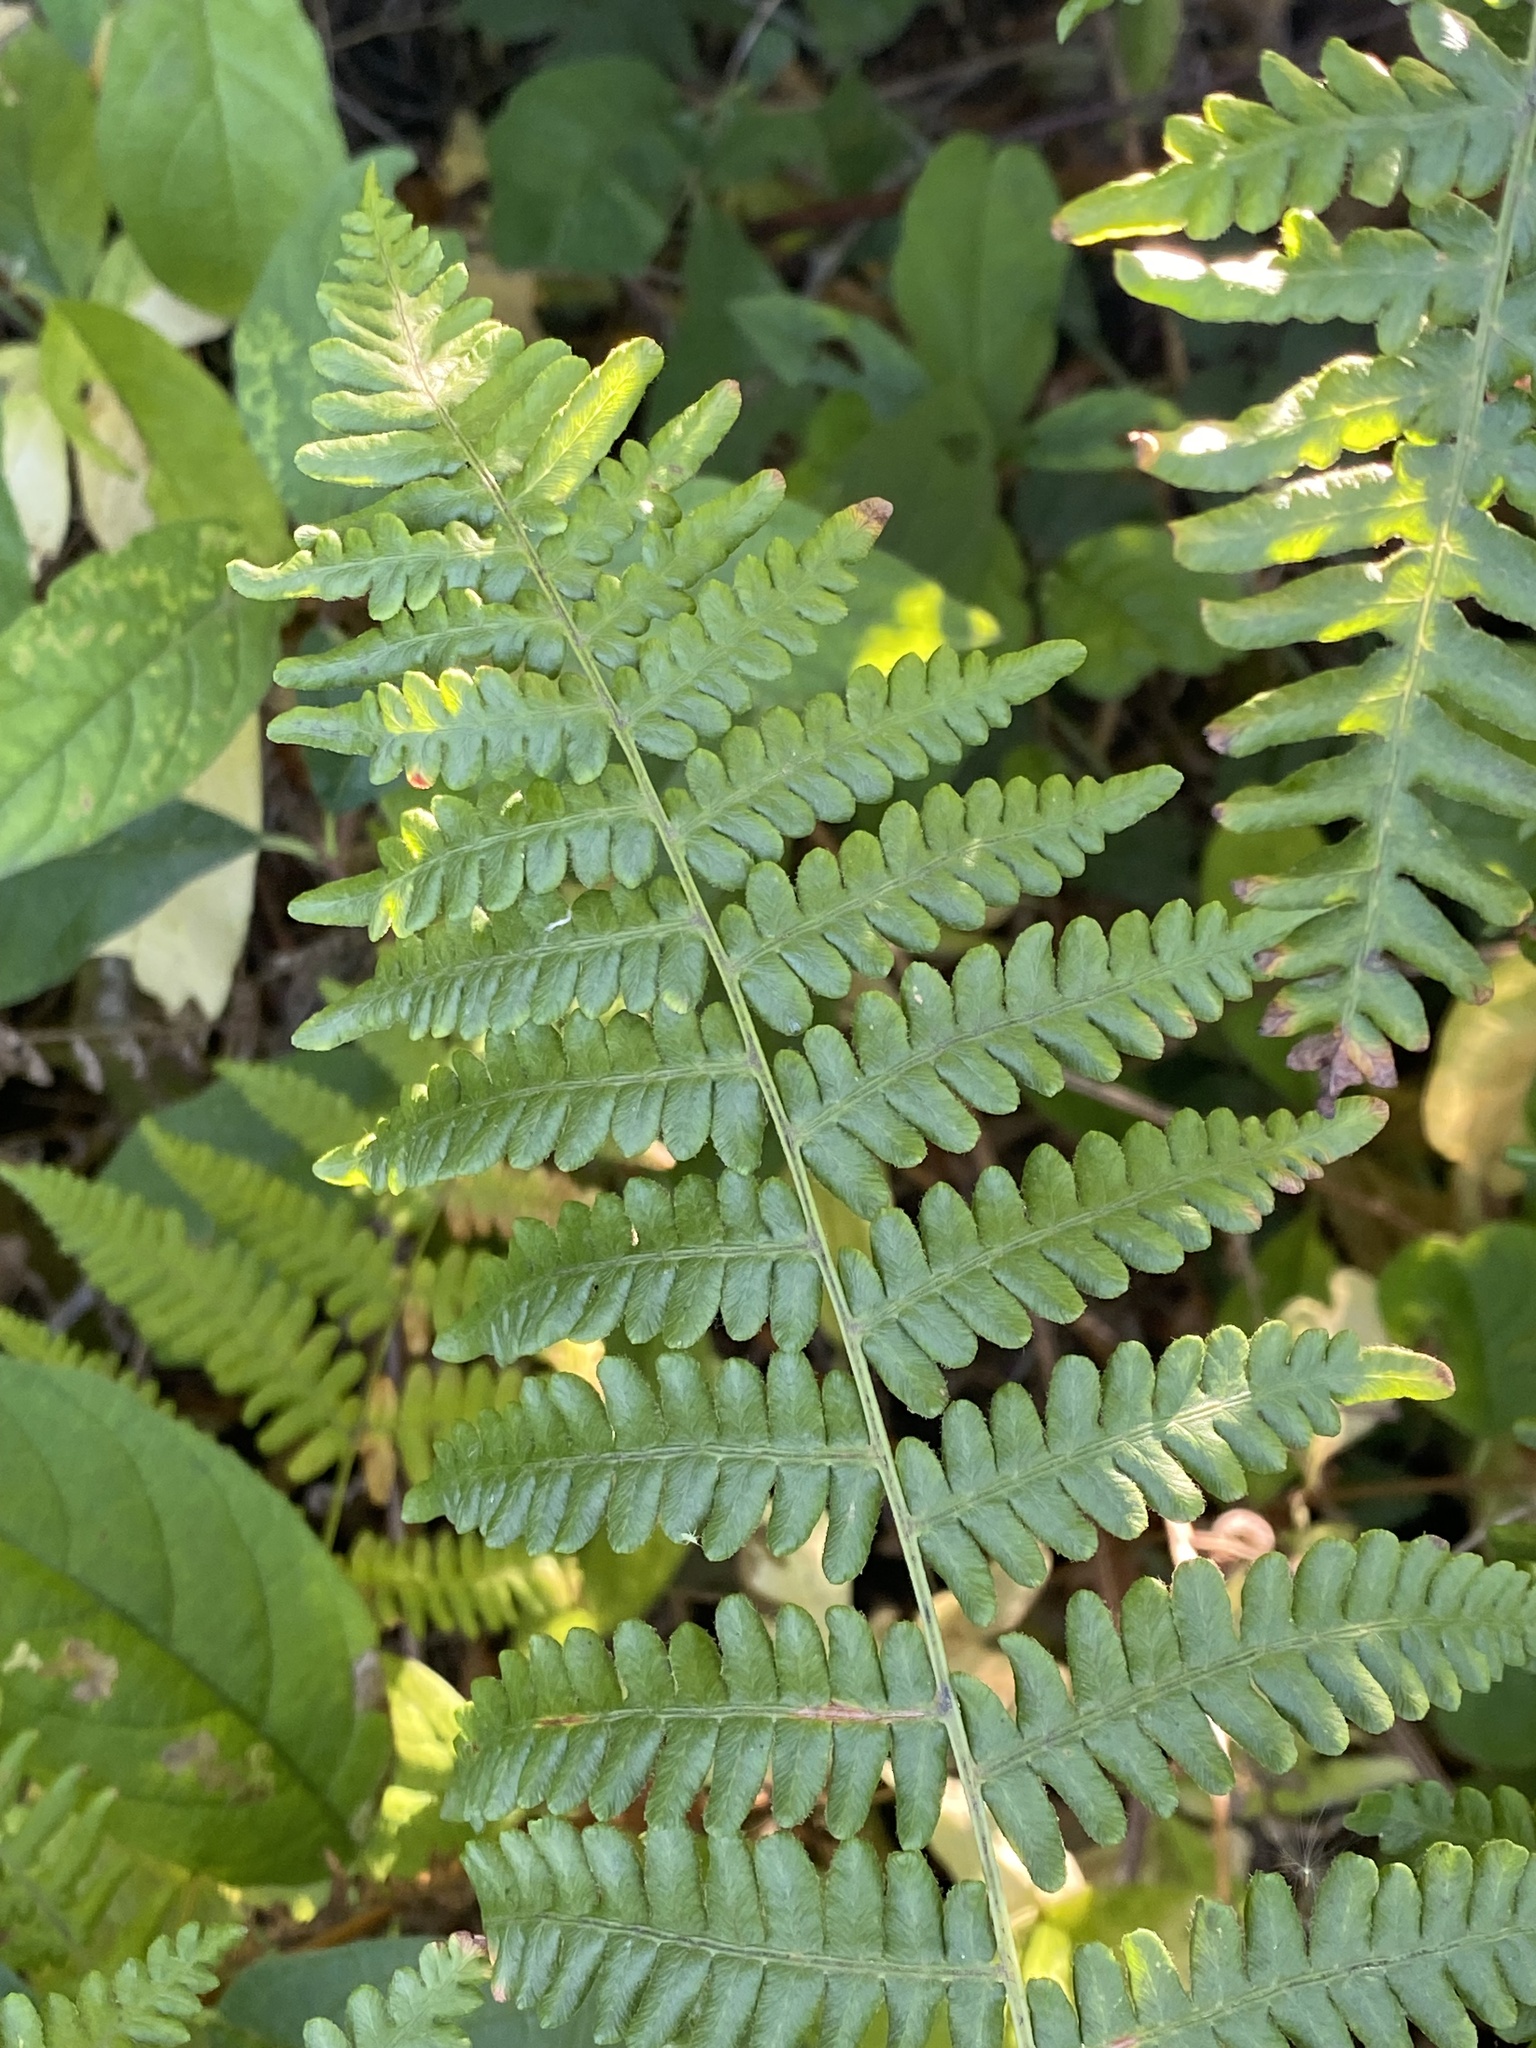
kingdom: Plantae
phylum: Tracheophyta
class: Polypodiopsida
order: Polypodiales
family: Dennstaedtiaceae
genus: Pteridium
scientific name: Pteridium aquilinum
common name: Bracken
